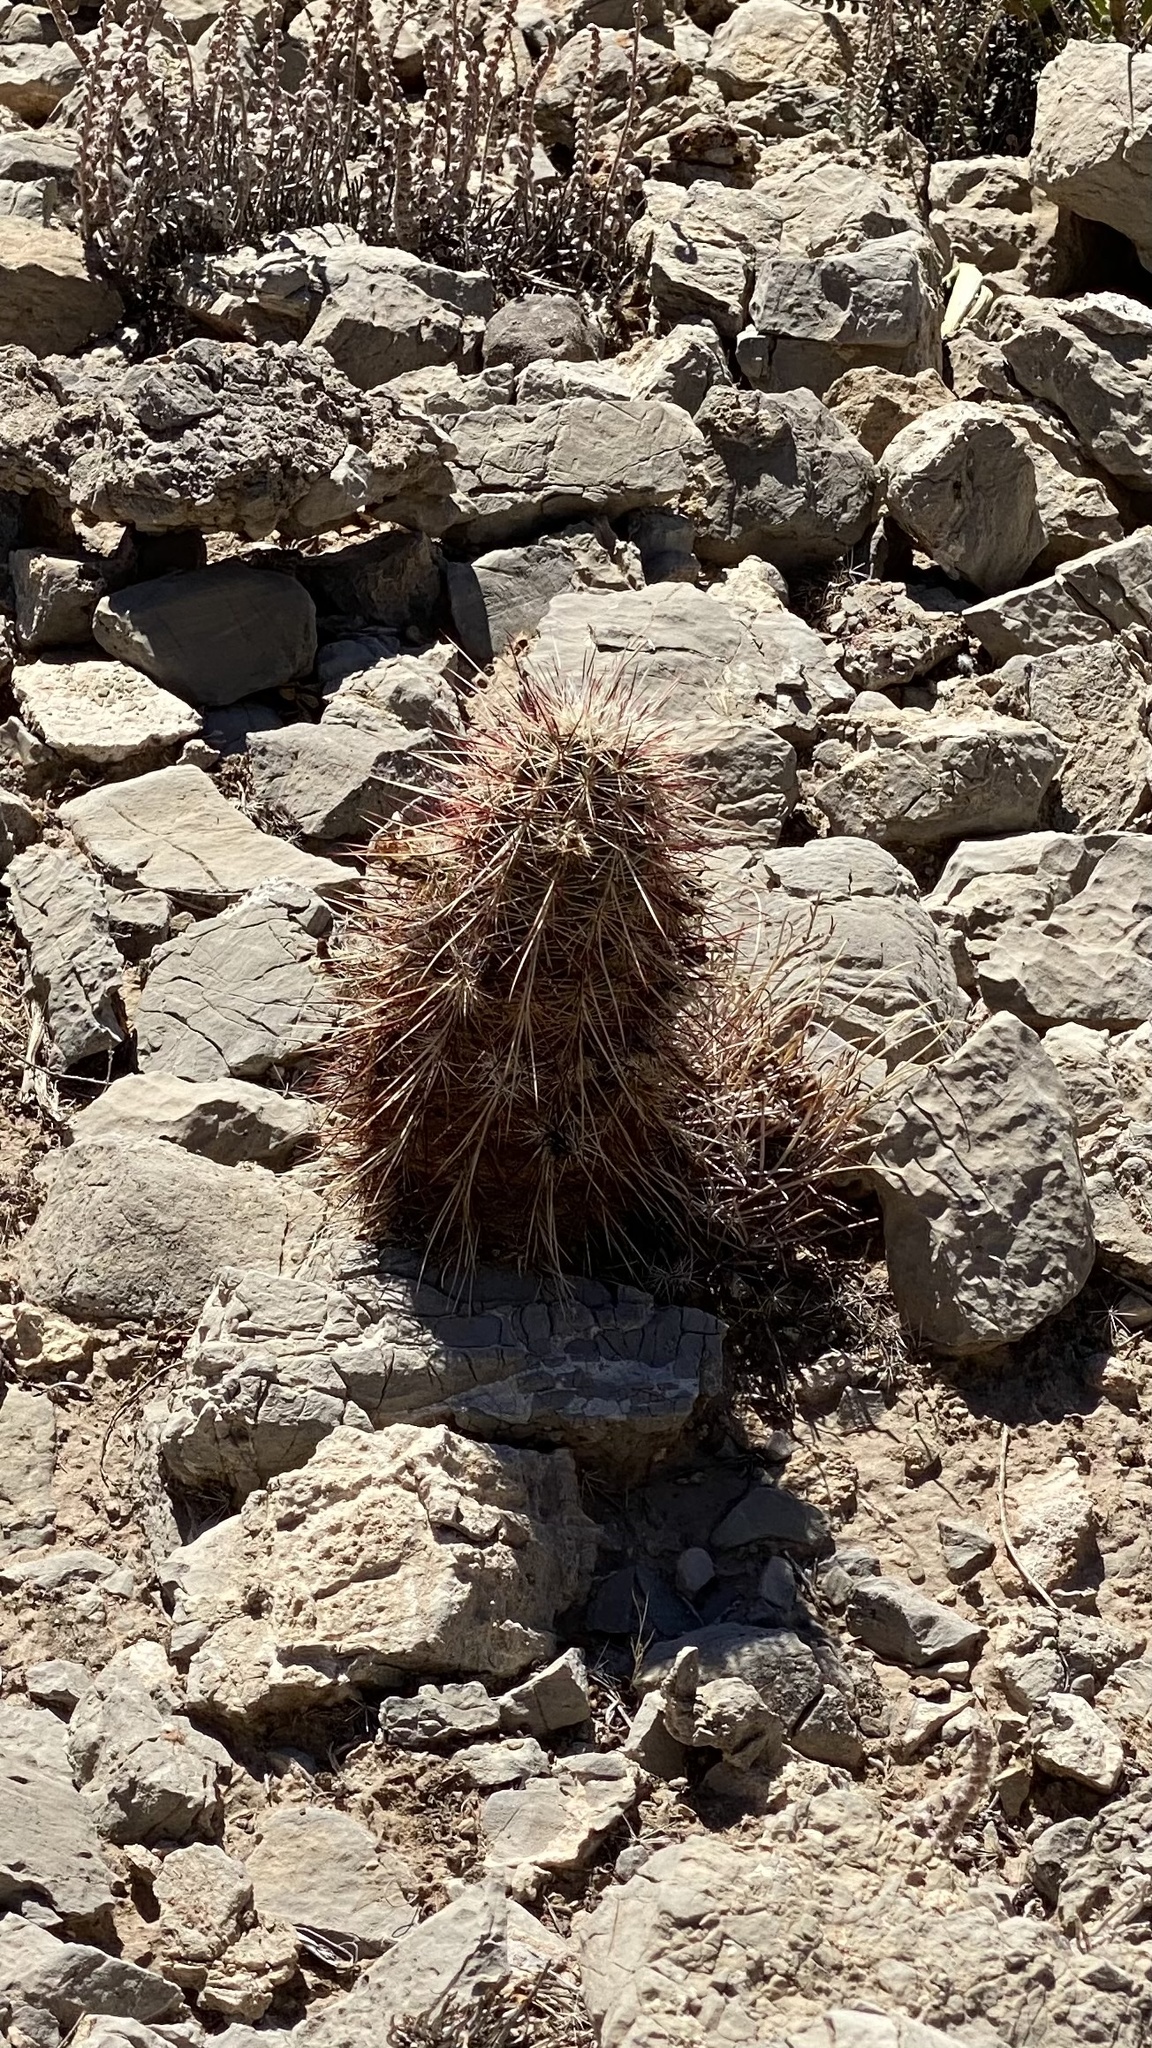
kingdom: Plantae
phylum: Tracheophyta
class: Magnoliopsida
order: Caryophyllales
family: Cactaceae
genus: Echinocereus
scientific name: Echinocereus viridiflorus
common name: Nylon hedgehog cactus
